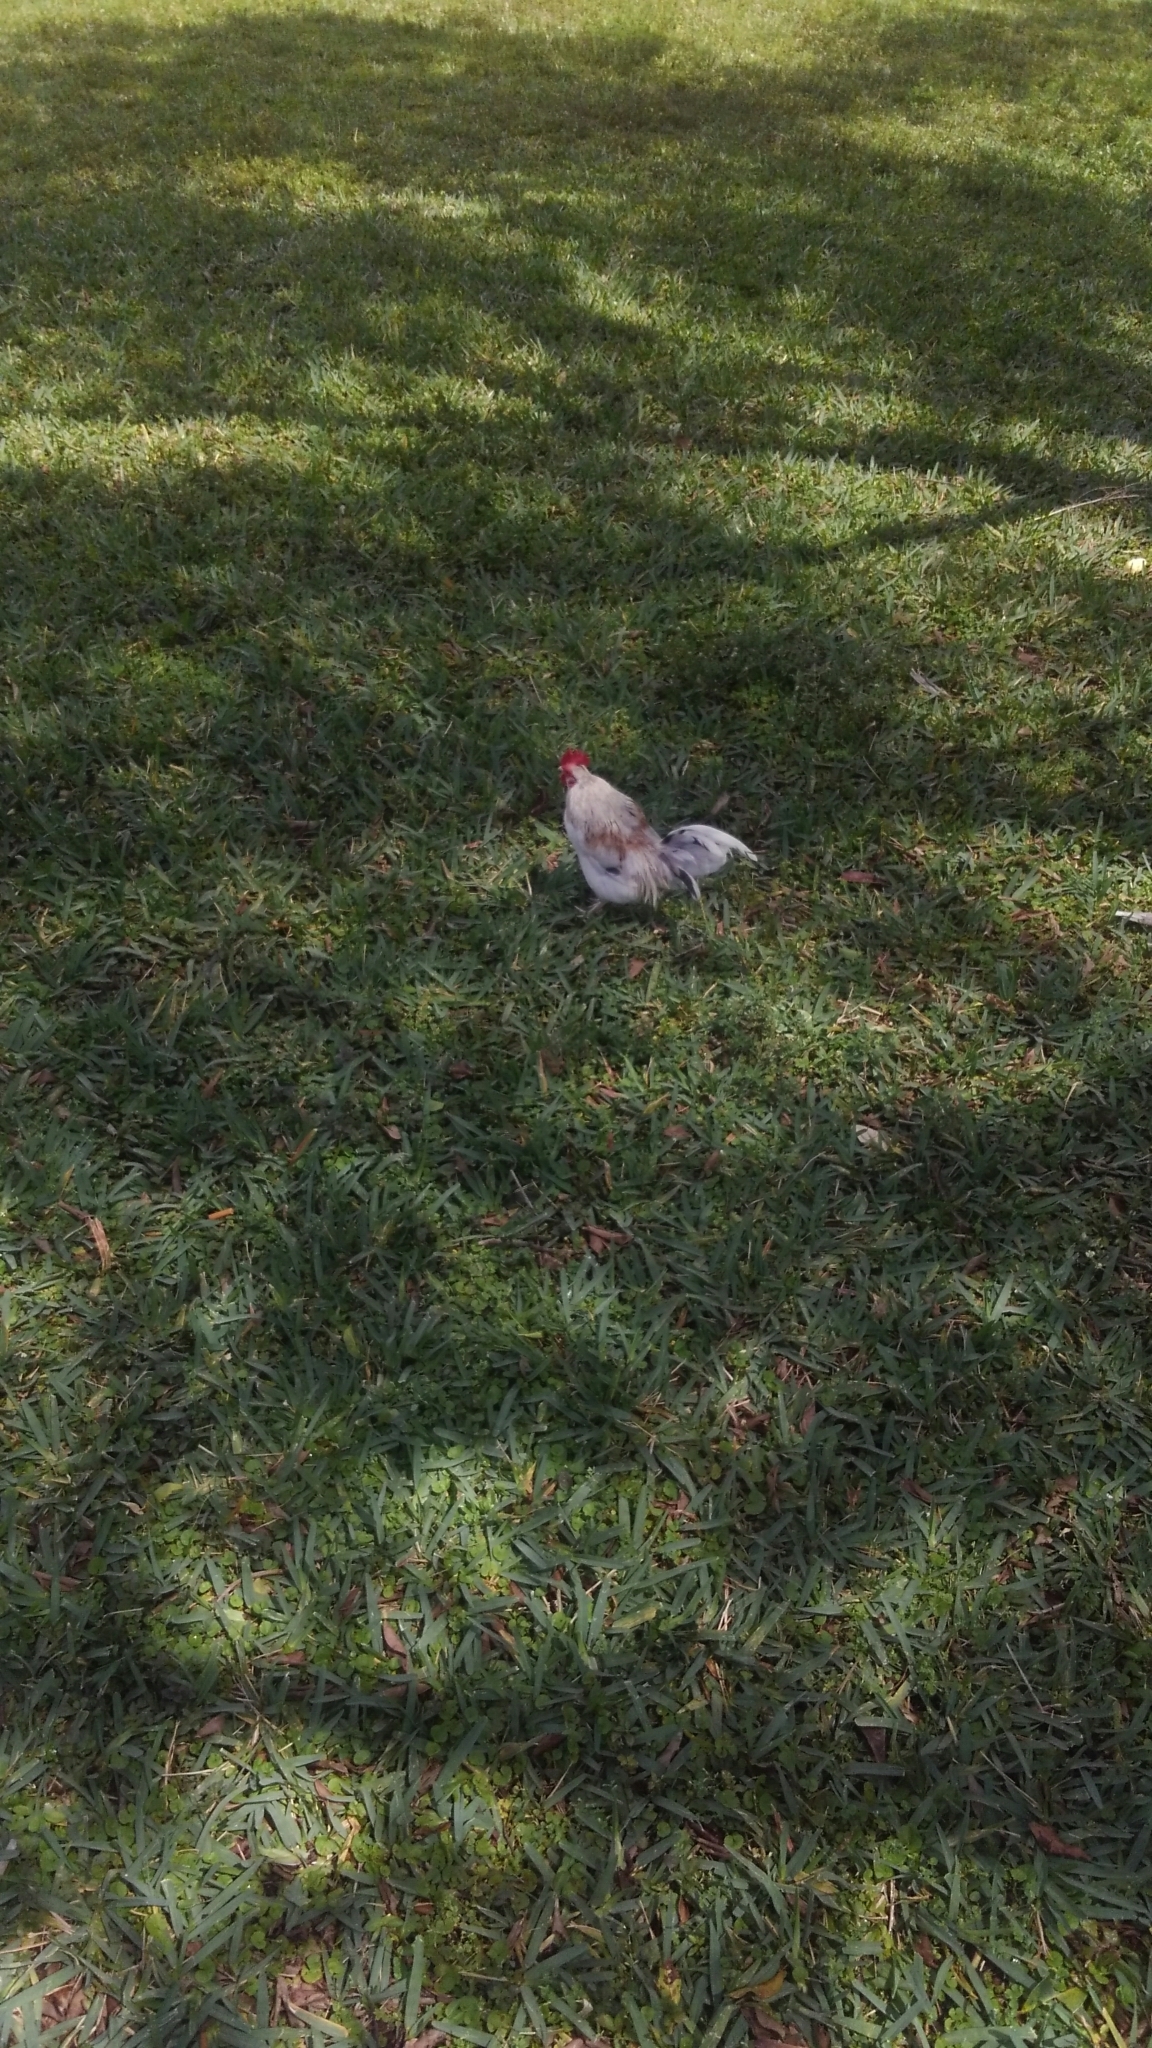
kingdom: Animalia
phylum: Chordata
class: Aves
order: Galliformes
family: Phasianidae
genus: Gallus
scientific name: Gallus gallus
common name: Red junglefowl
